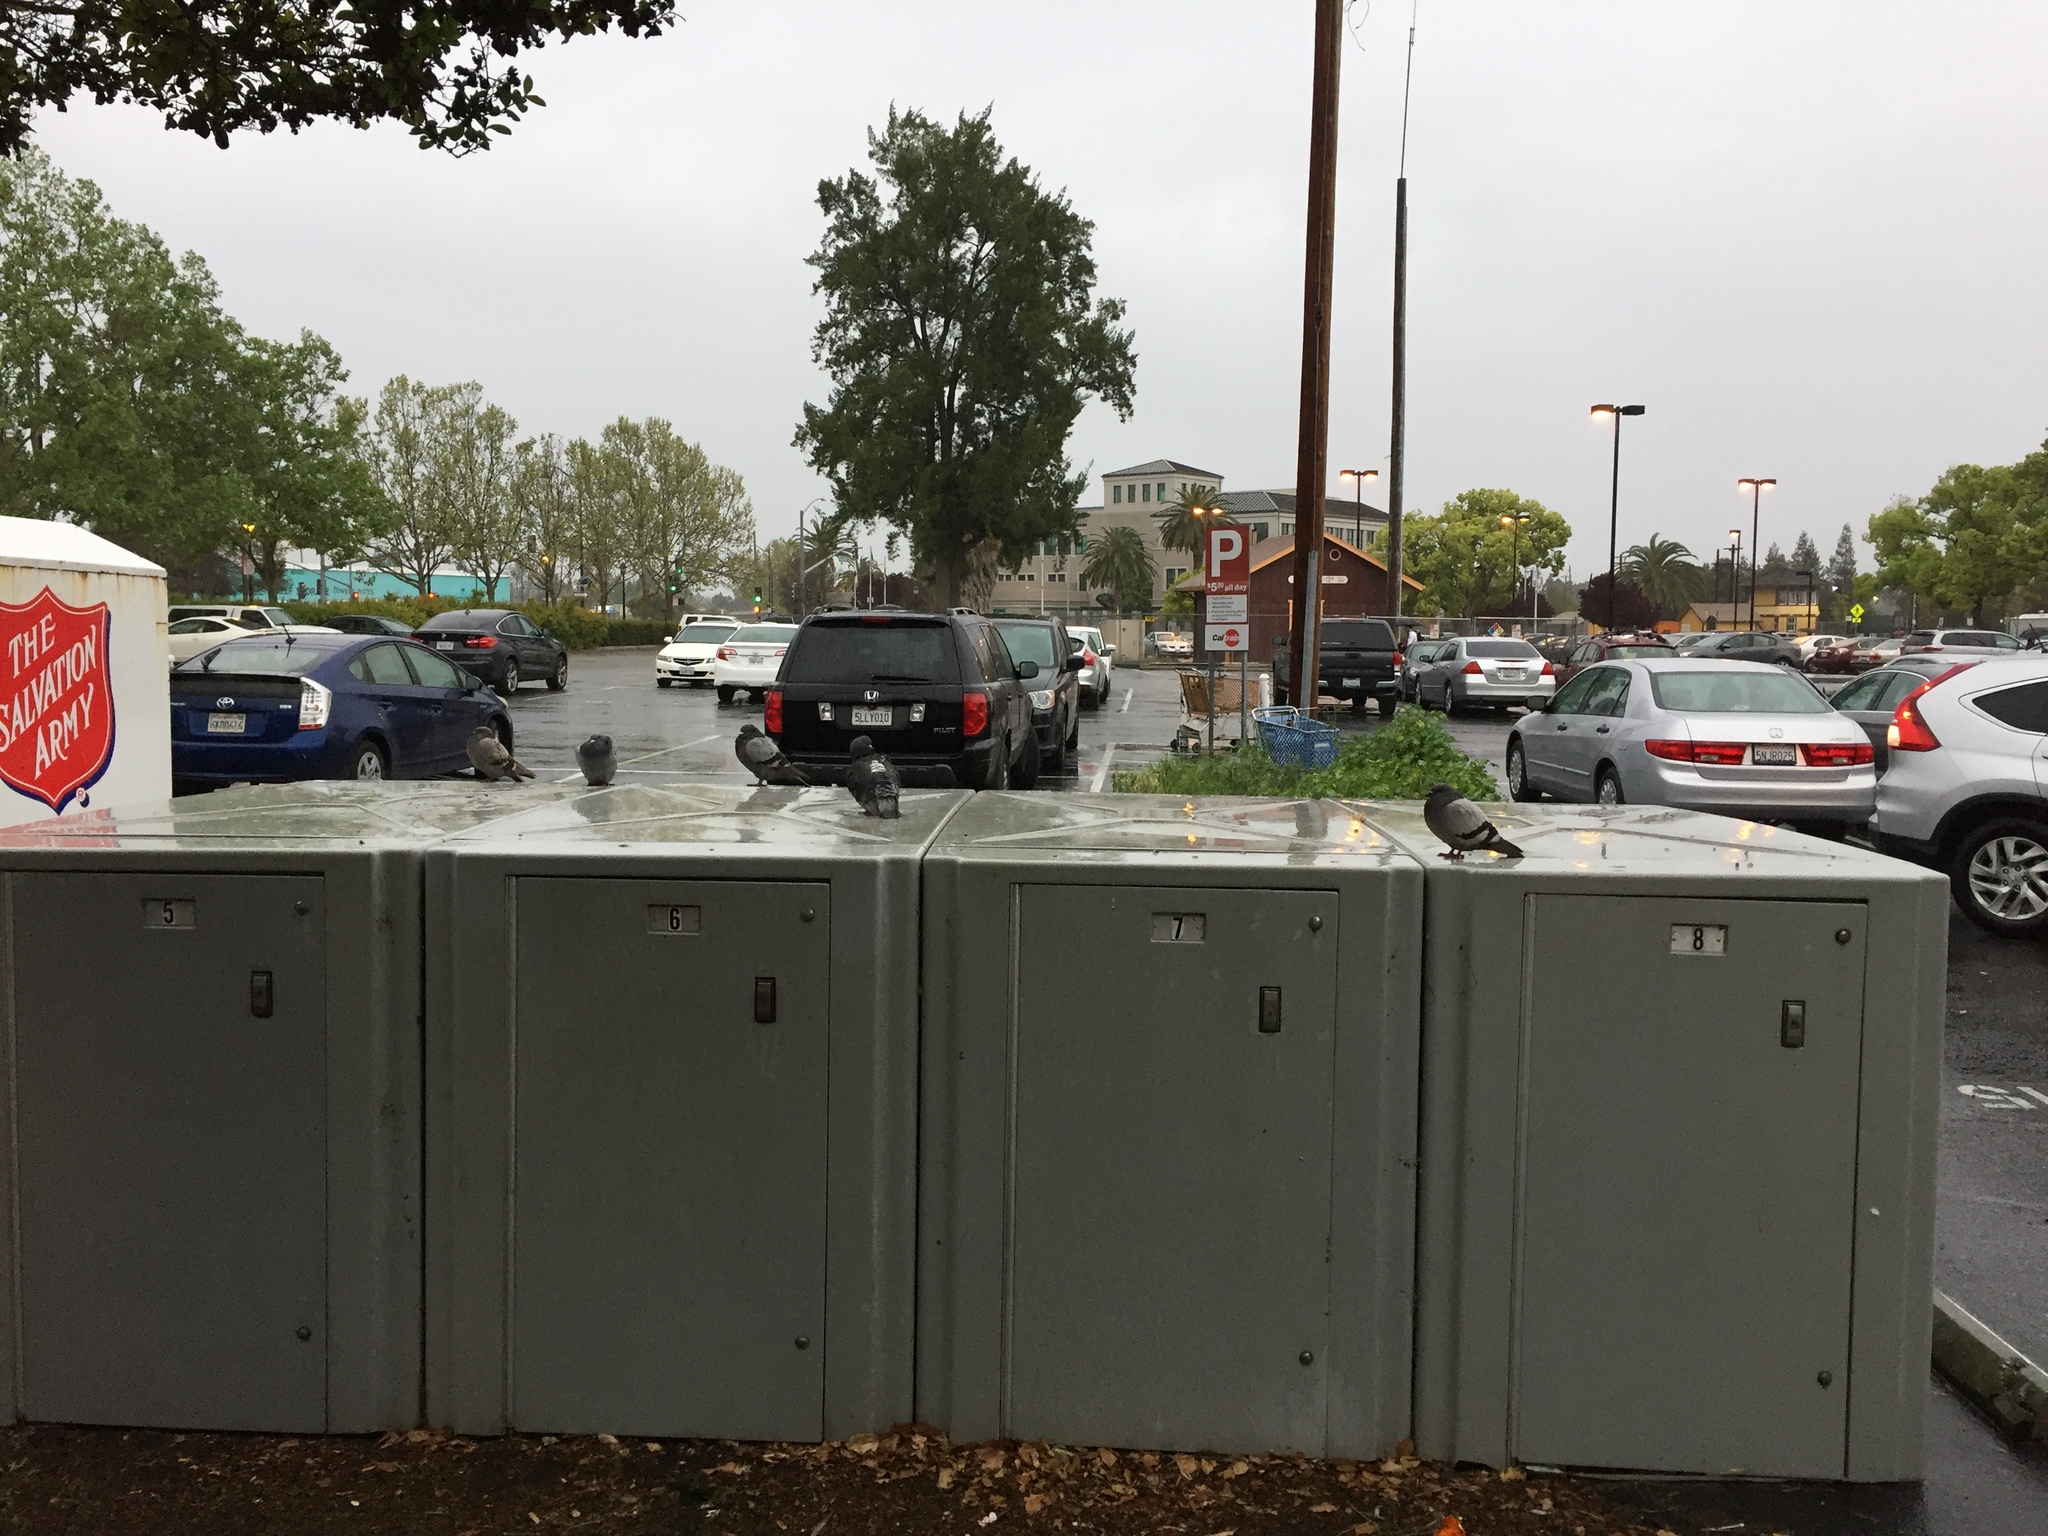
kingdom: Animalia
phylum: Chordata
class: Aves
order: Columbiformes
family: Columbidae
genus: Columba
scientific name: Columba livia
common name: Rock pigeon
